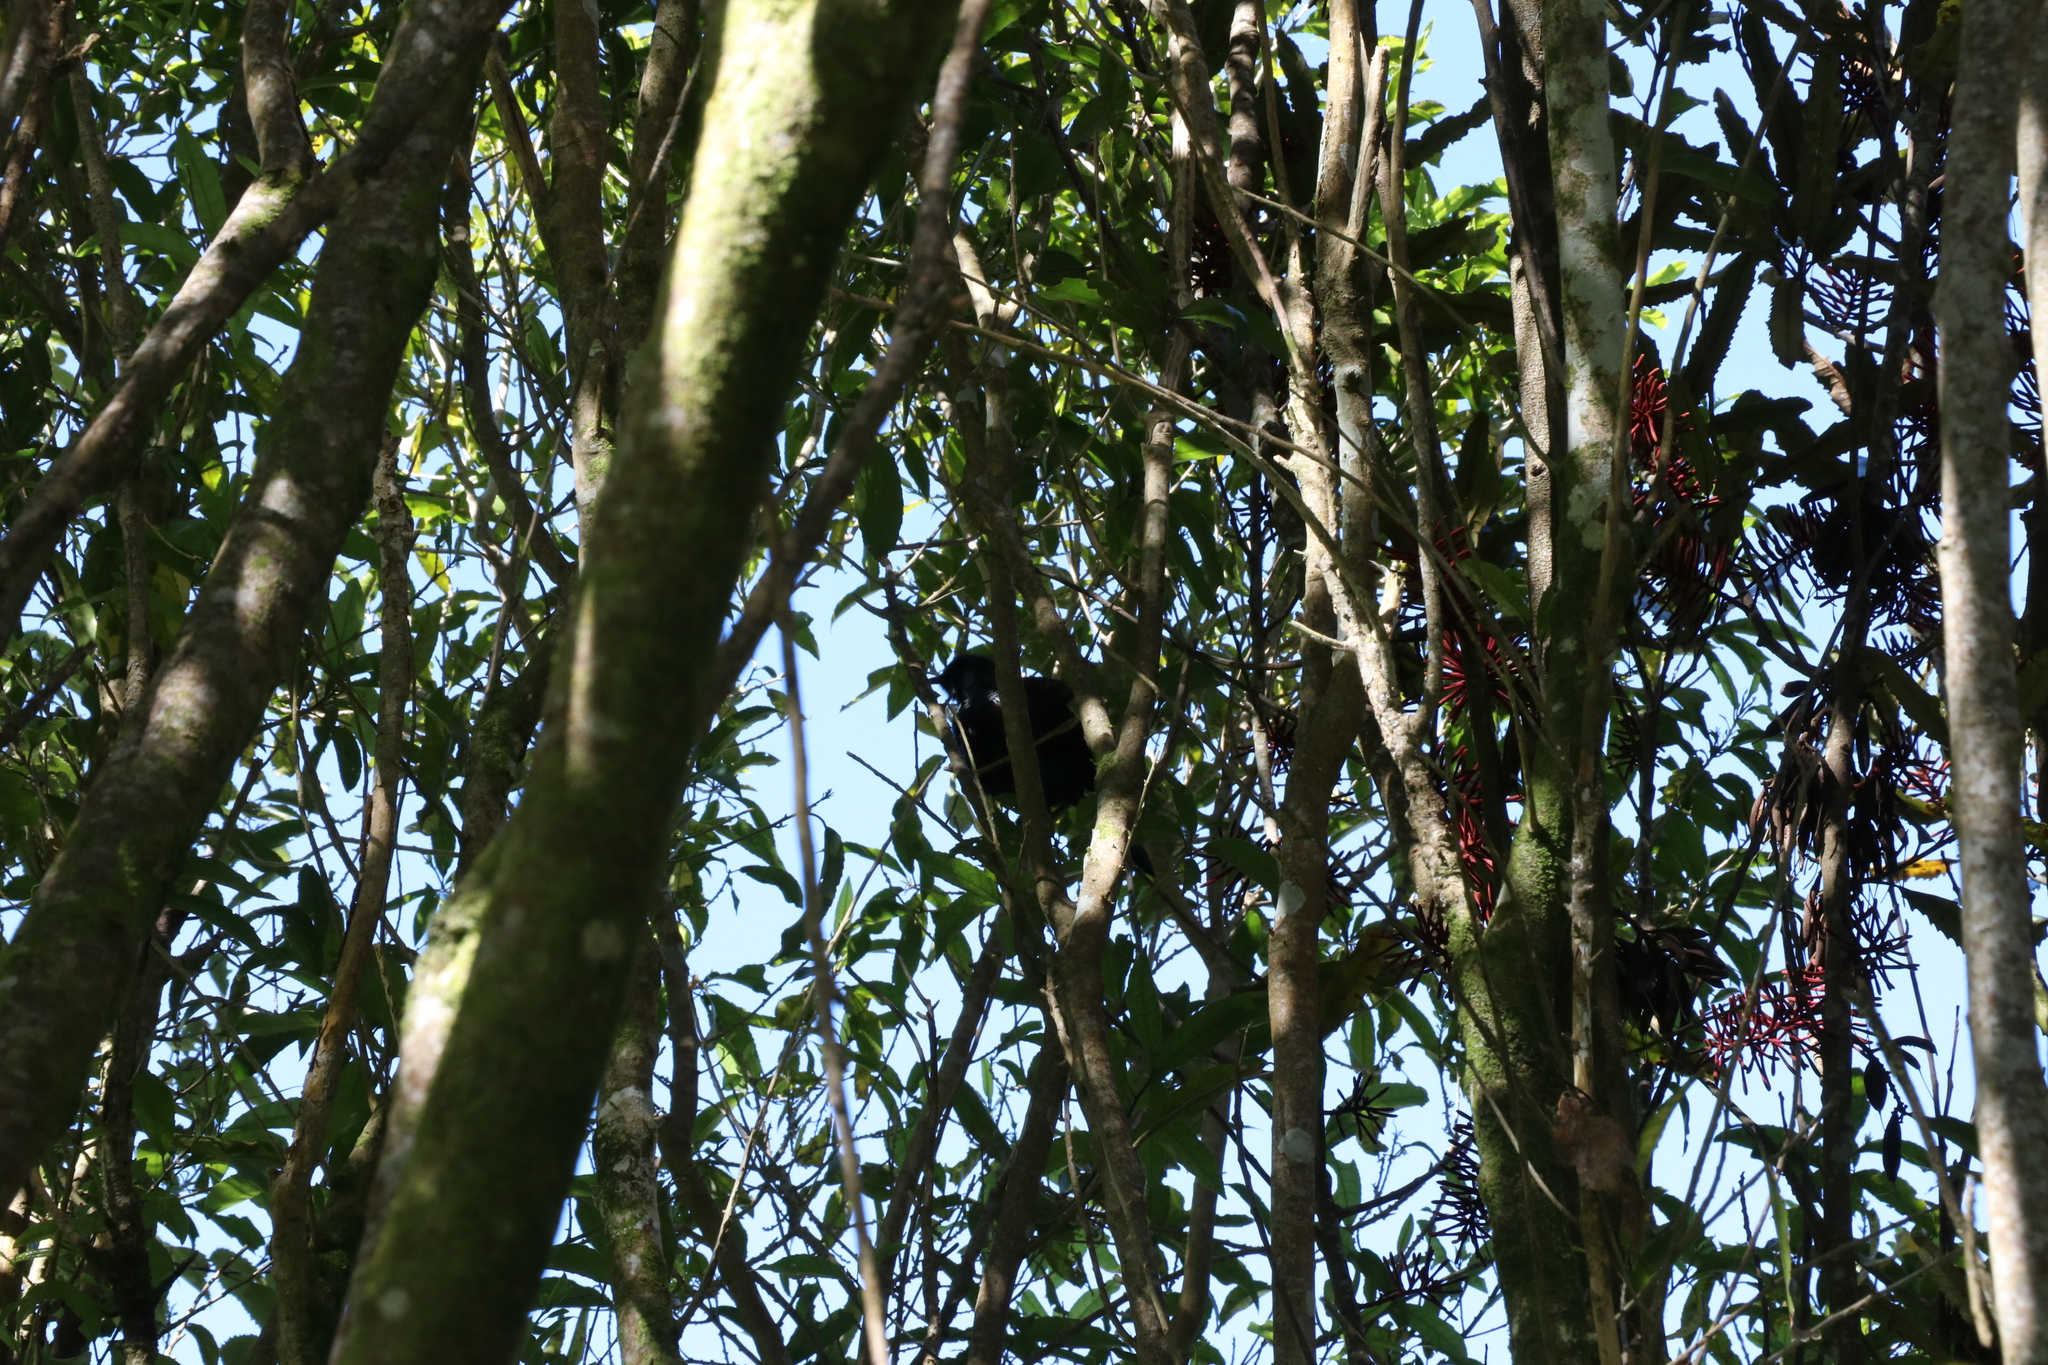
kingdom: Animalia
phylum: Chordata
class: Aves
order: Passeriformes
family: Meliphagidae
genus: Prosthemadera
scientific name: Prosthemadera novaeseelandiae
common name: Tui
